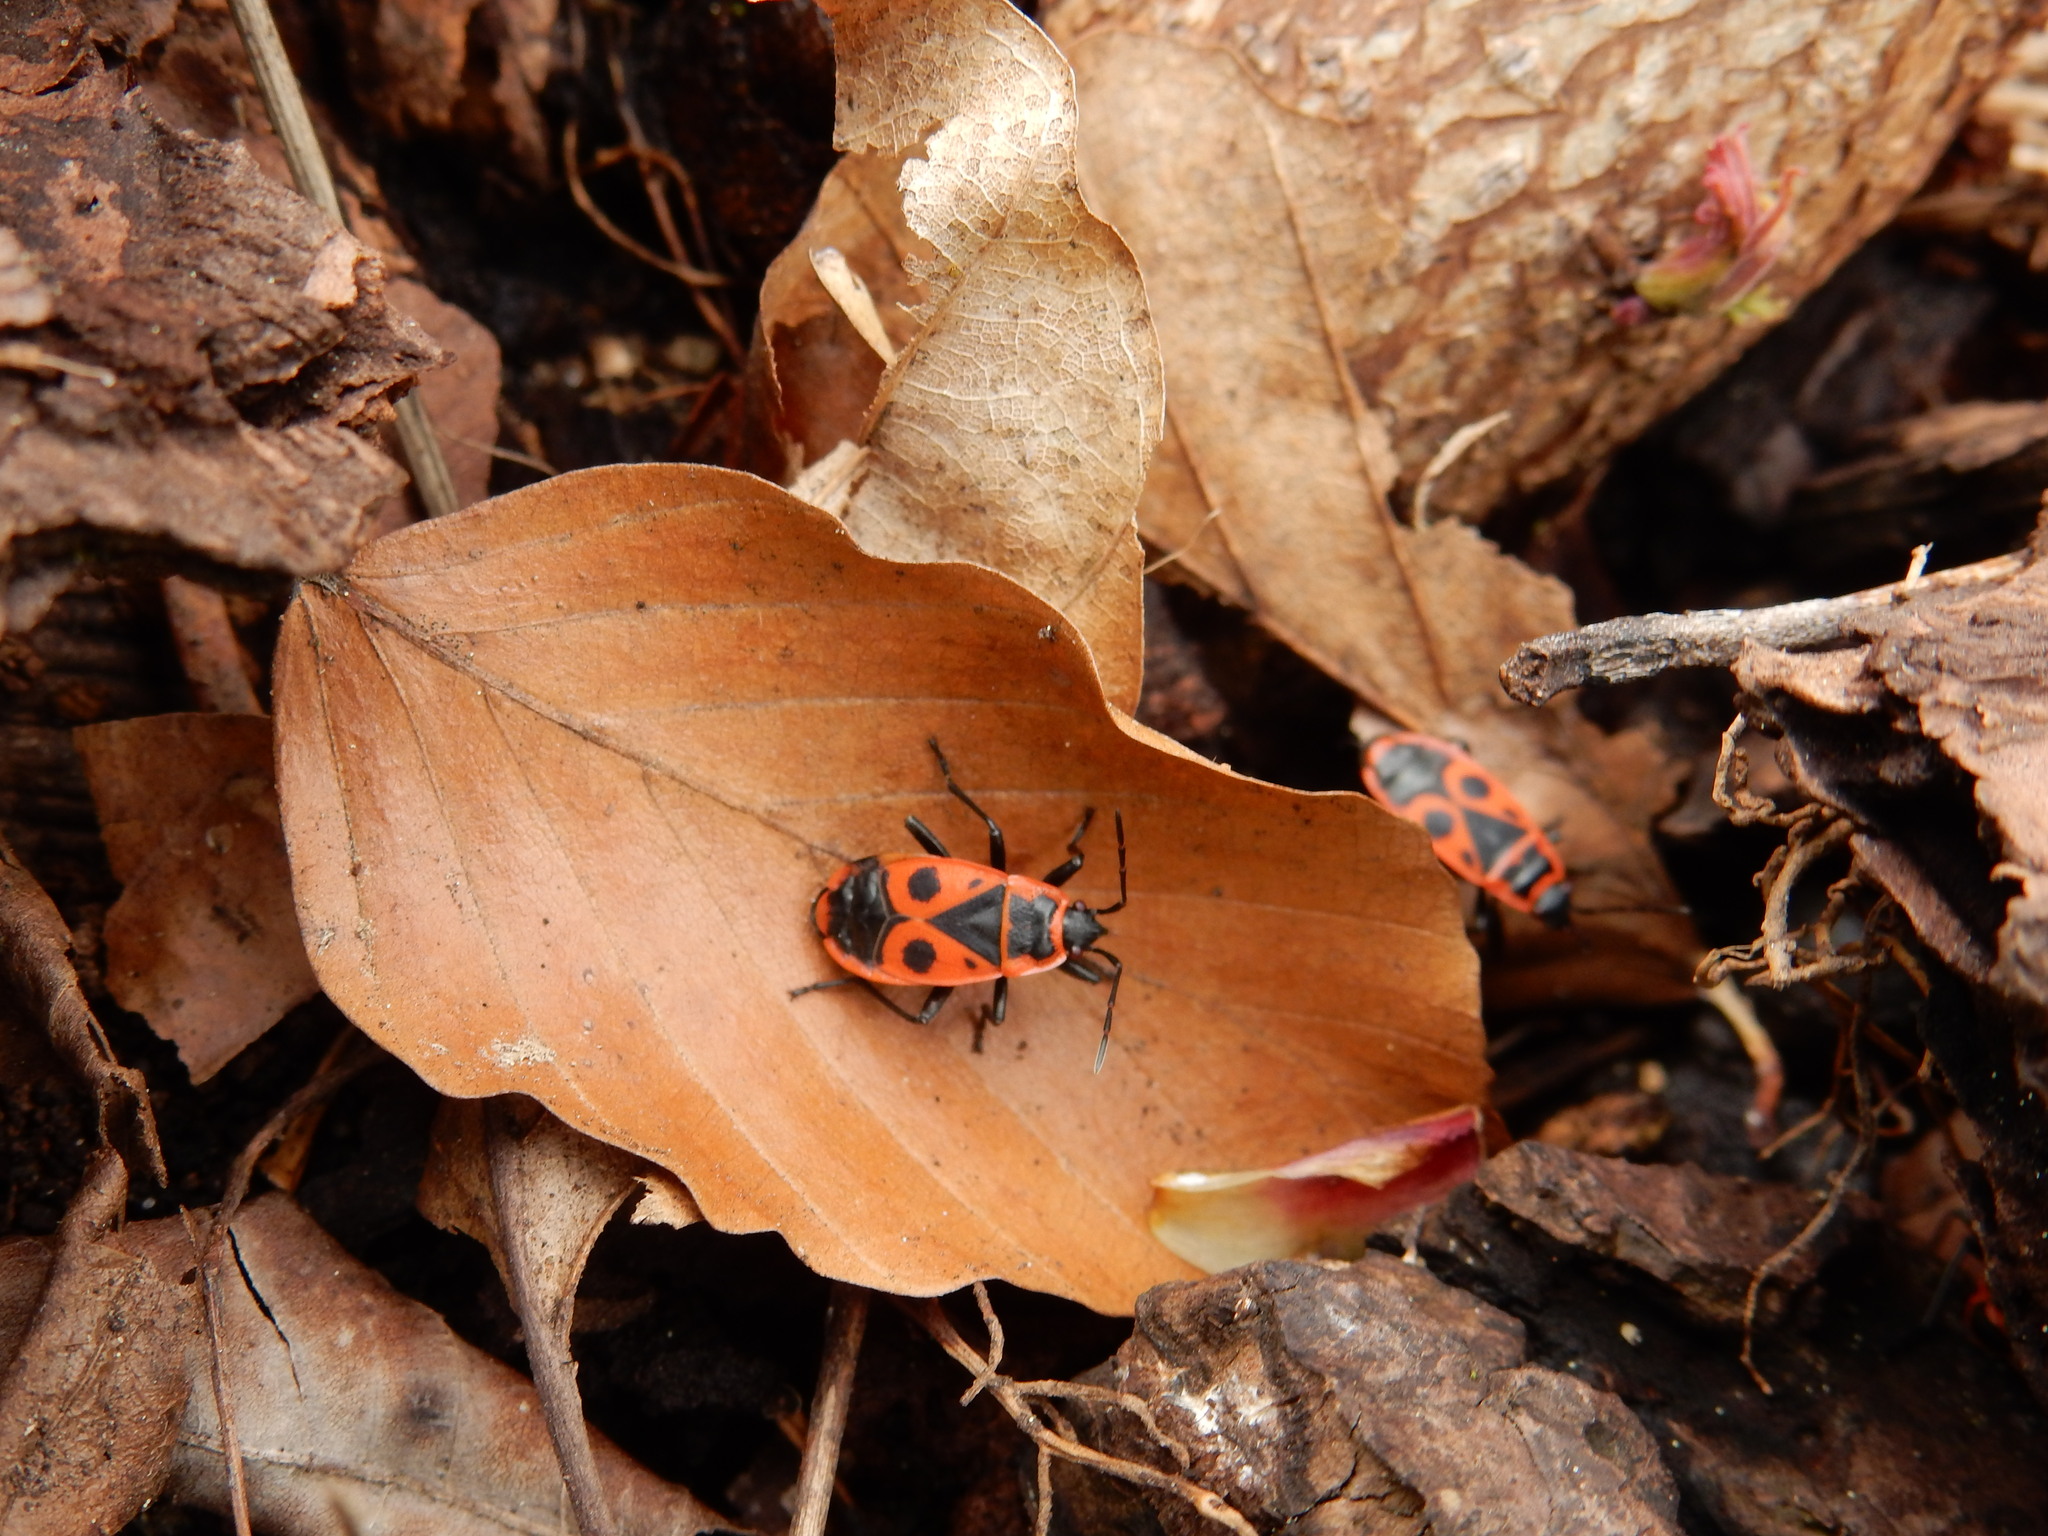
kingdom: Animalia
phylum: Arthropoda
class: Insecta
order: Hemiptera
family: Pyrrhocoridae
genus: Pyrrhocoris
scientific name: Pyrrhocoris apterus
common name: Firebug
